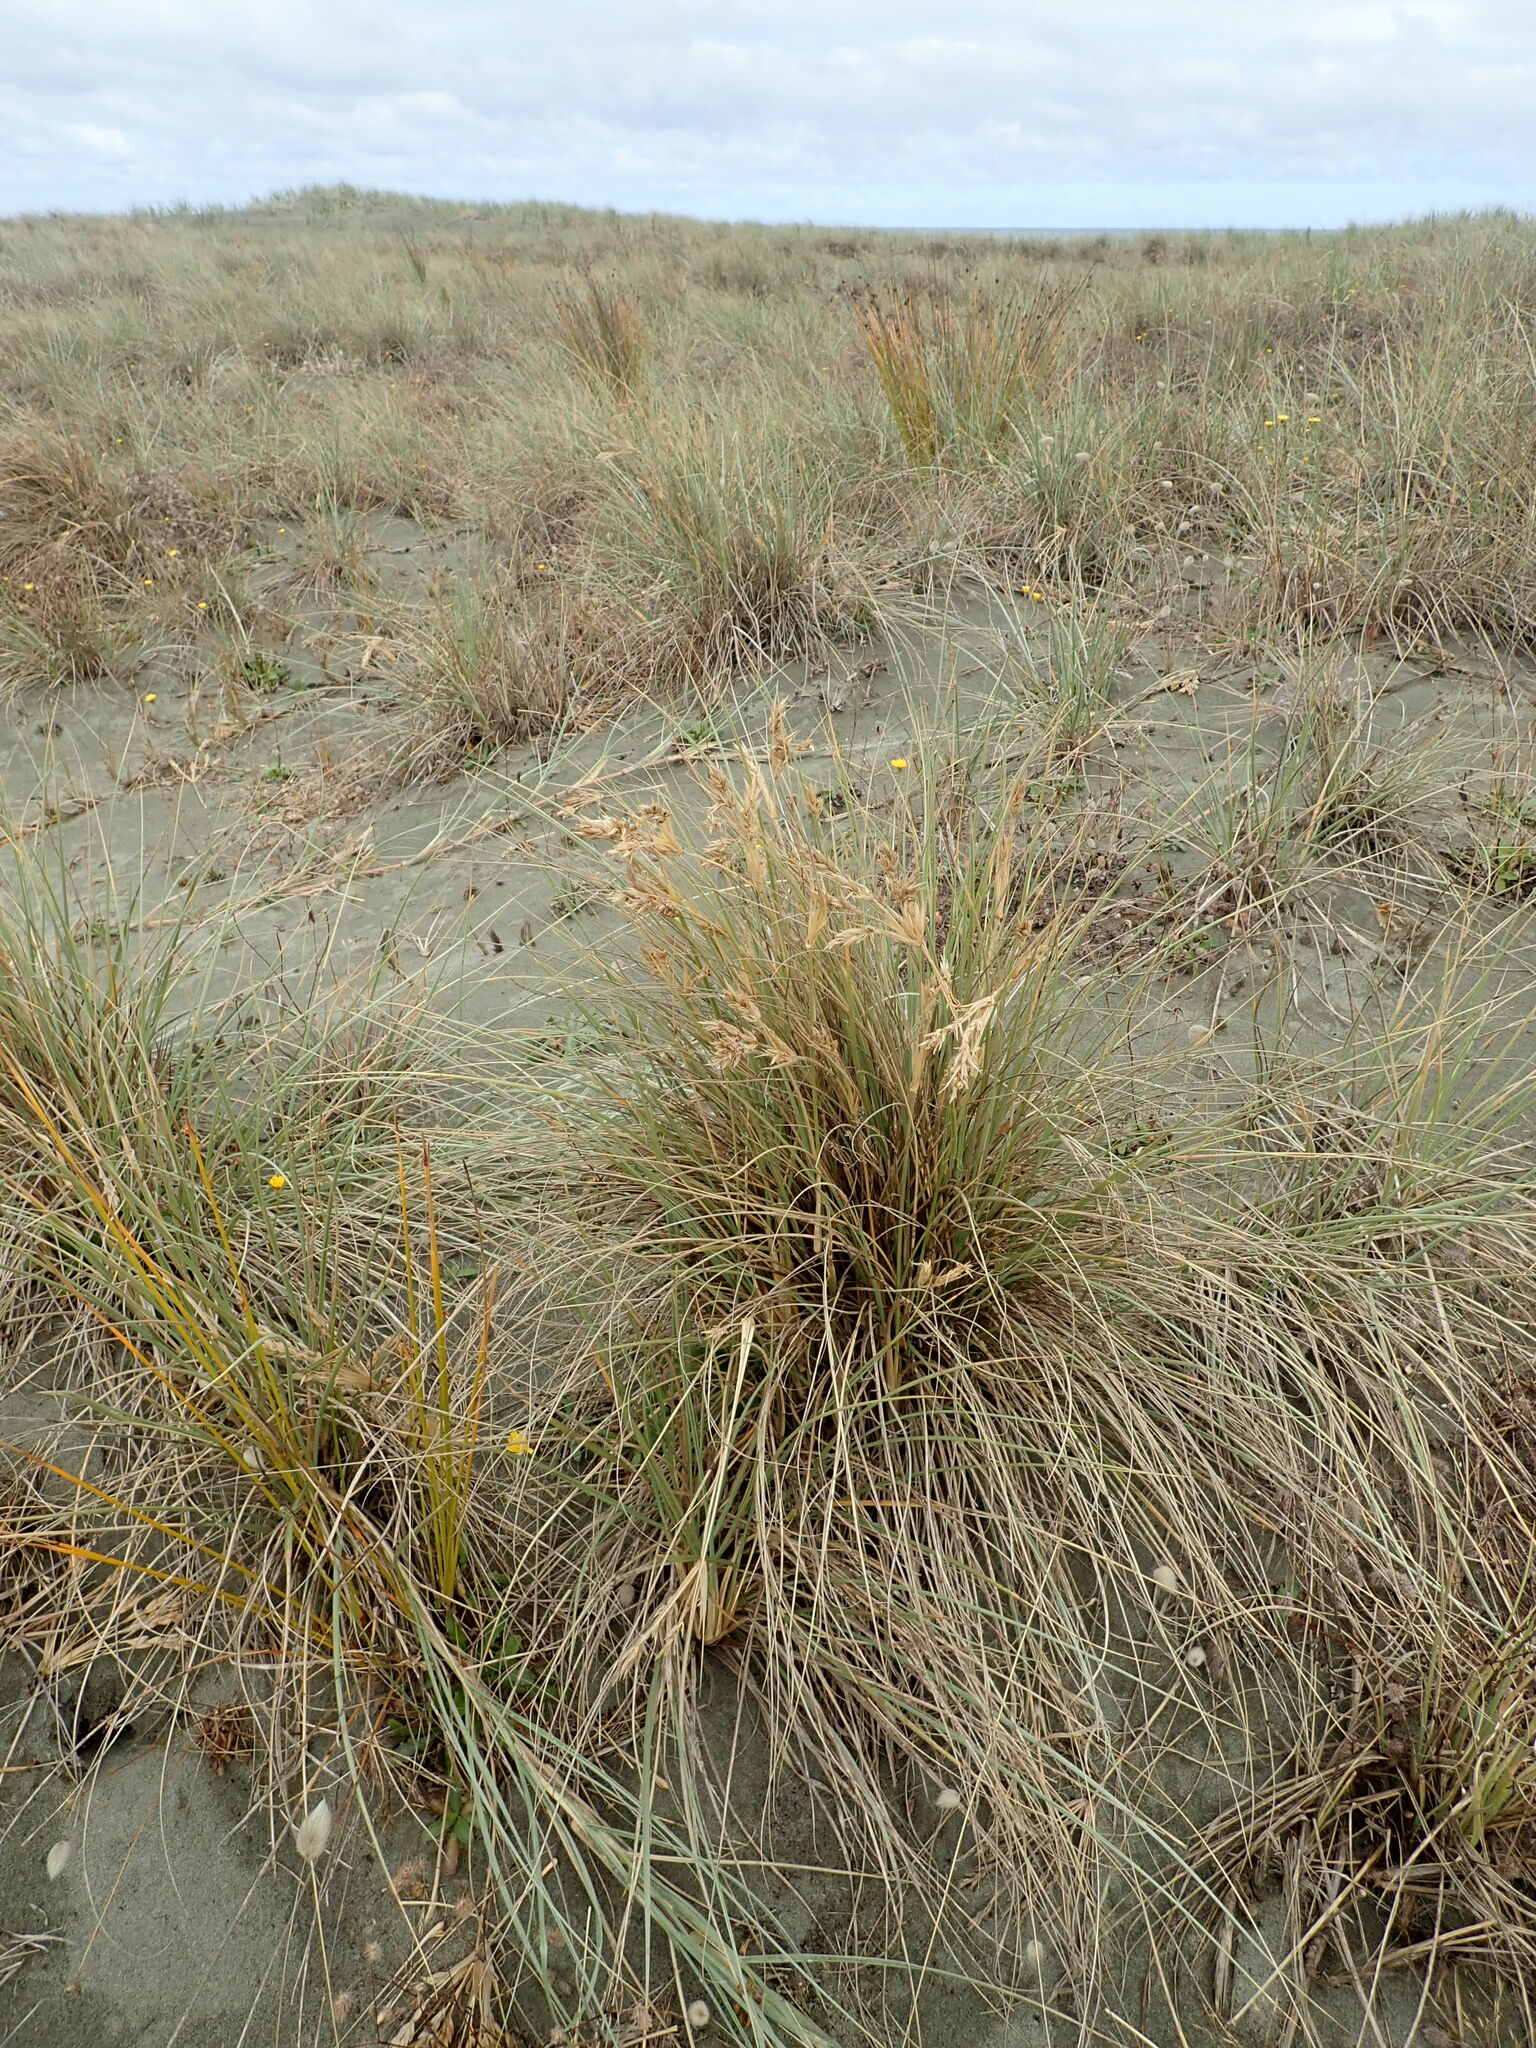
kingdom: Plantae
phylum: Tracheophyta
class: Liliopsida
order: Poales
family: Poaceae
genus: Spinifex
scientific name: Spinifex sericeus
